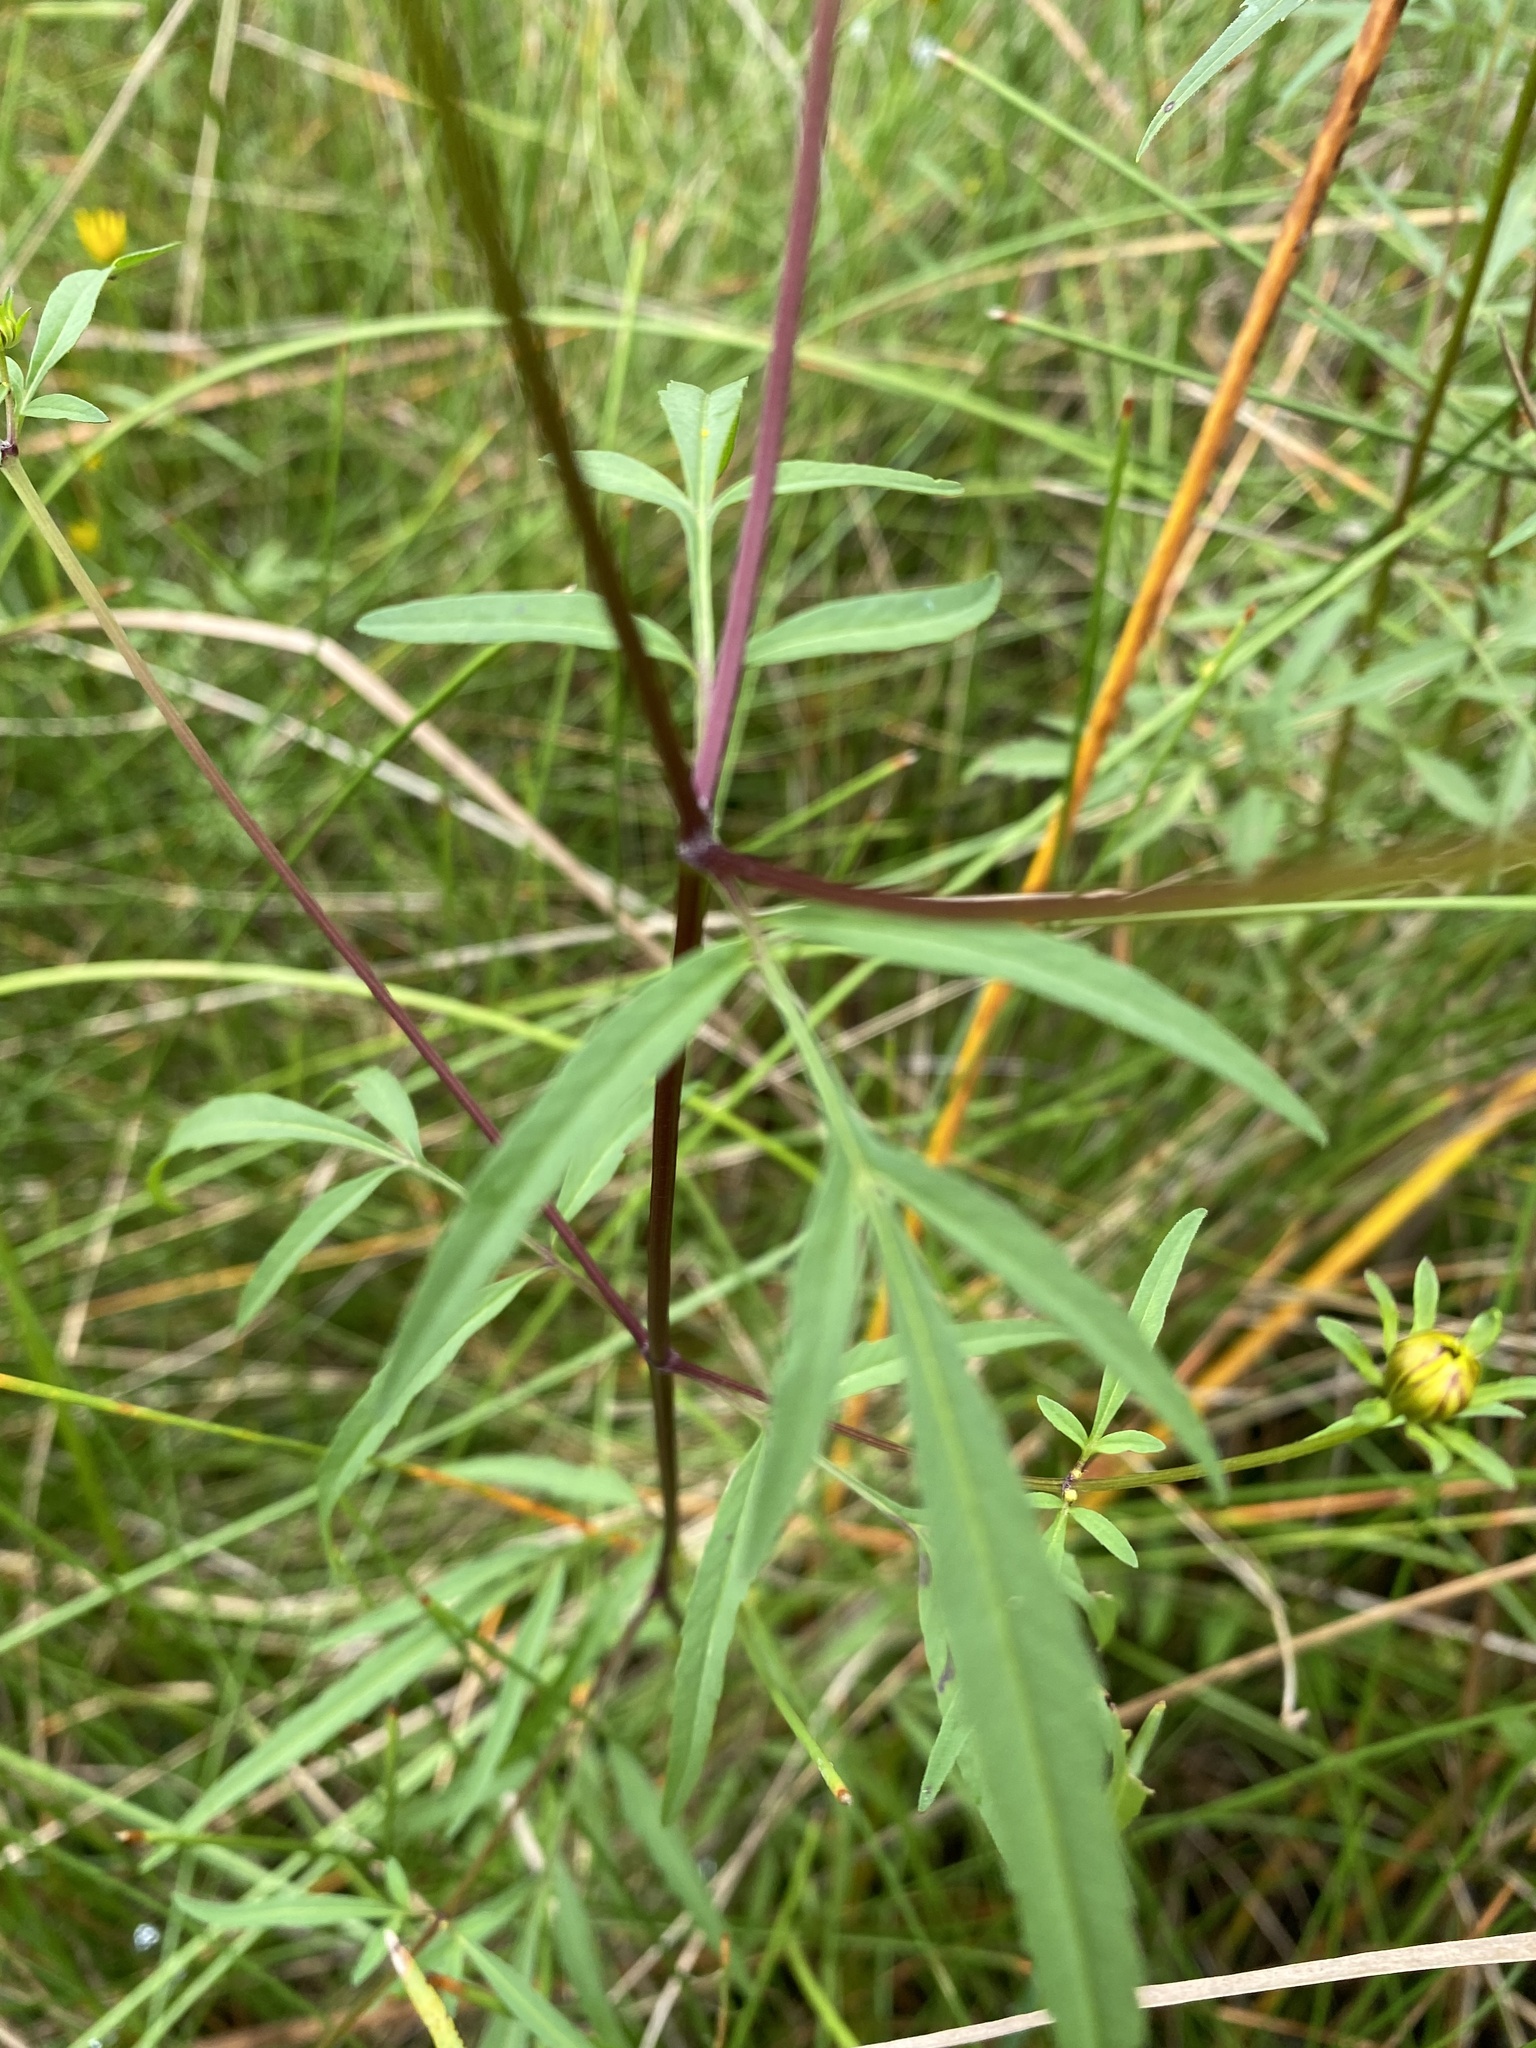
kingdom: Plantae
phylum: Tracheophyta
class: Magnoliopsida
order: Asterales
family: Asteraceae
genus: Bidens
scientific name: Bidens trichosperma
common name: Crowned beggarticks
